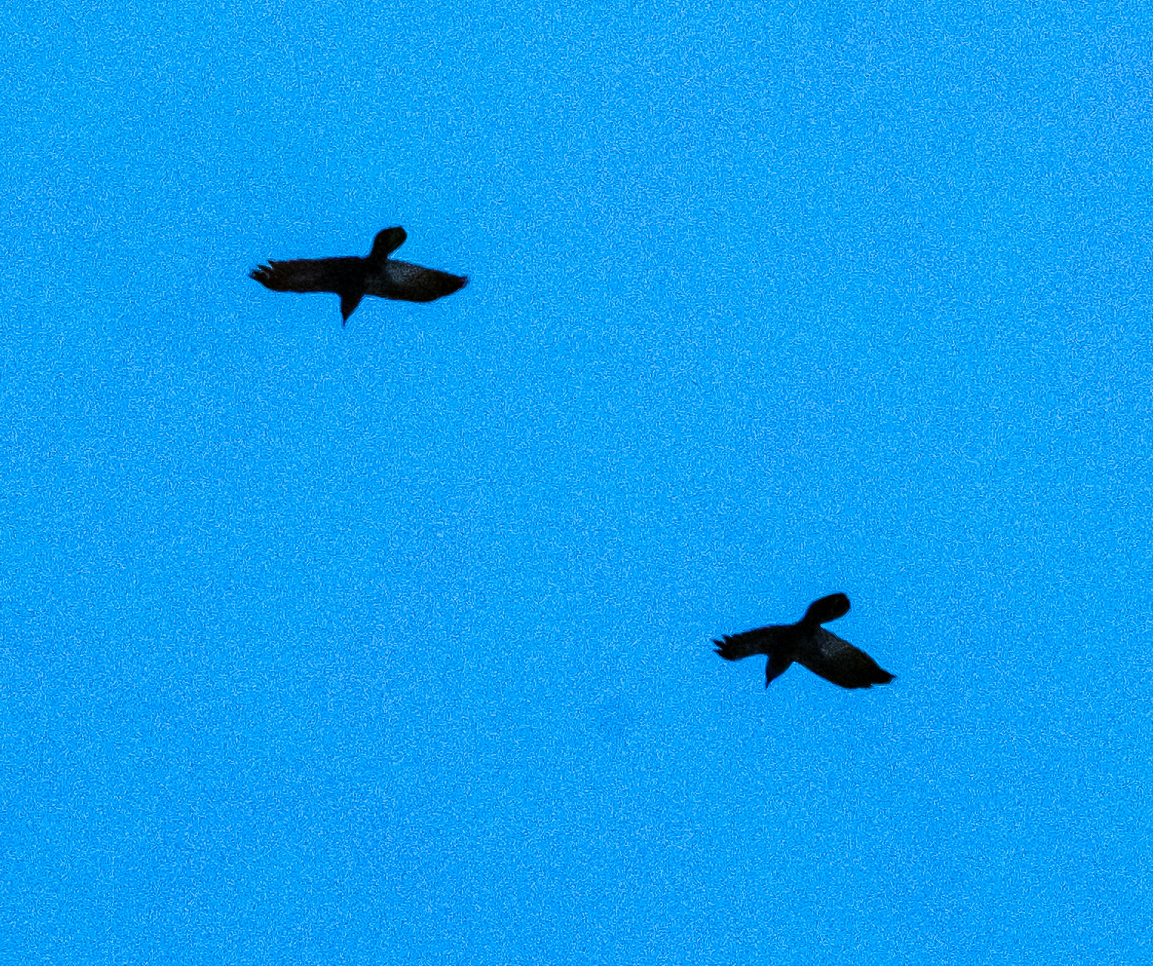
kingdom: Animalia
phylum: Chordata
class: Aves
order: Passeriformes
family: Corvidae
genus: Corvus
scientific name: Corvus corax
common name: Common raven
